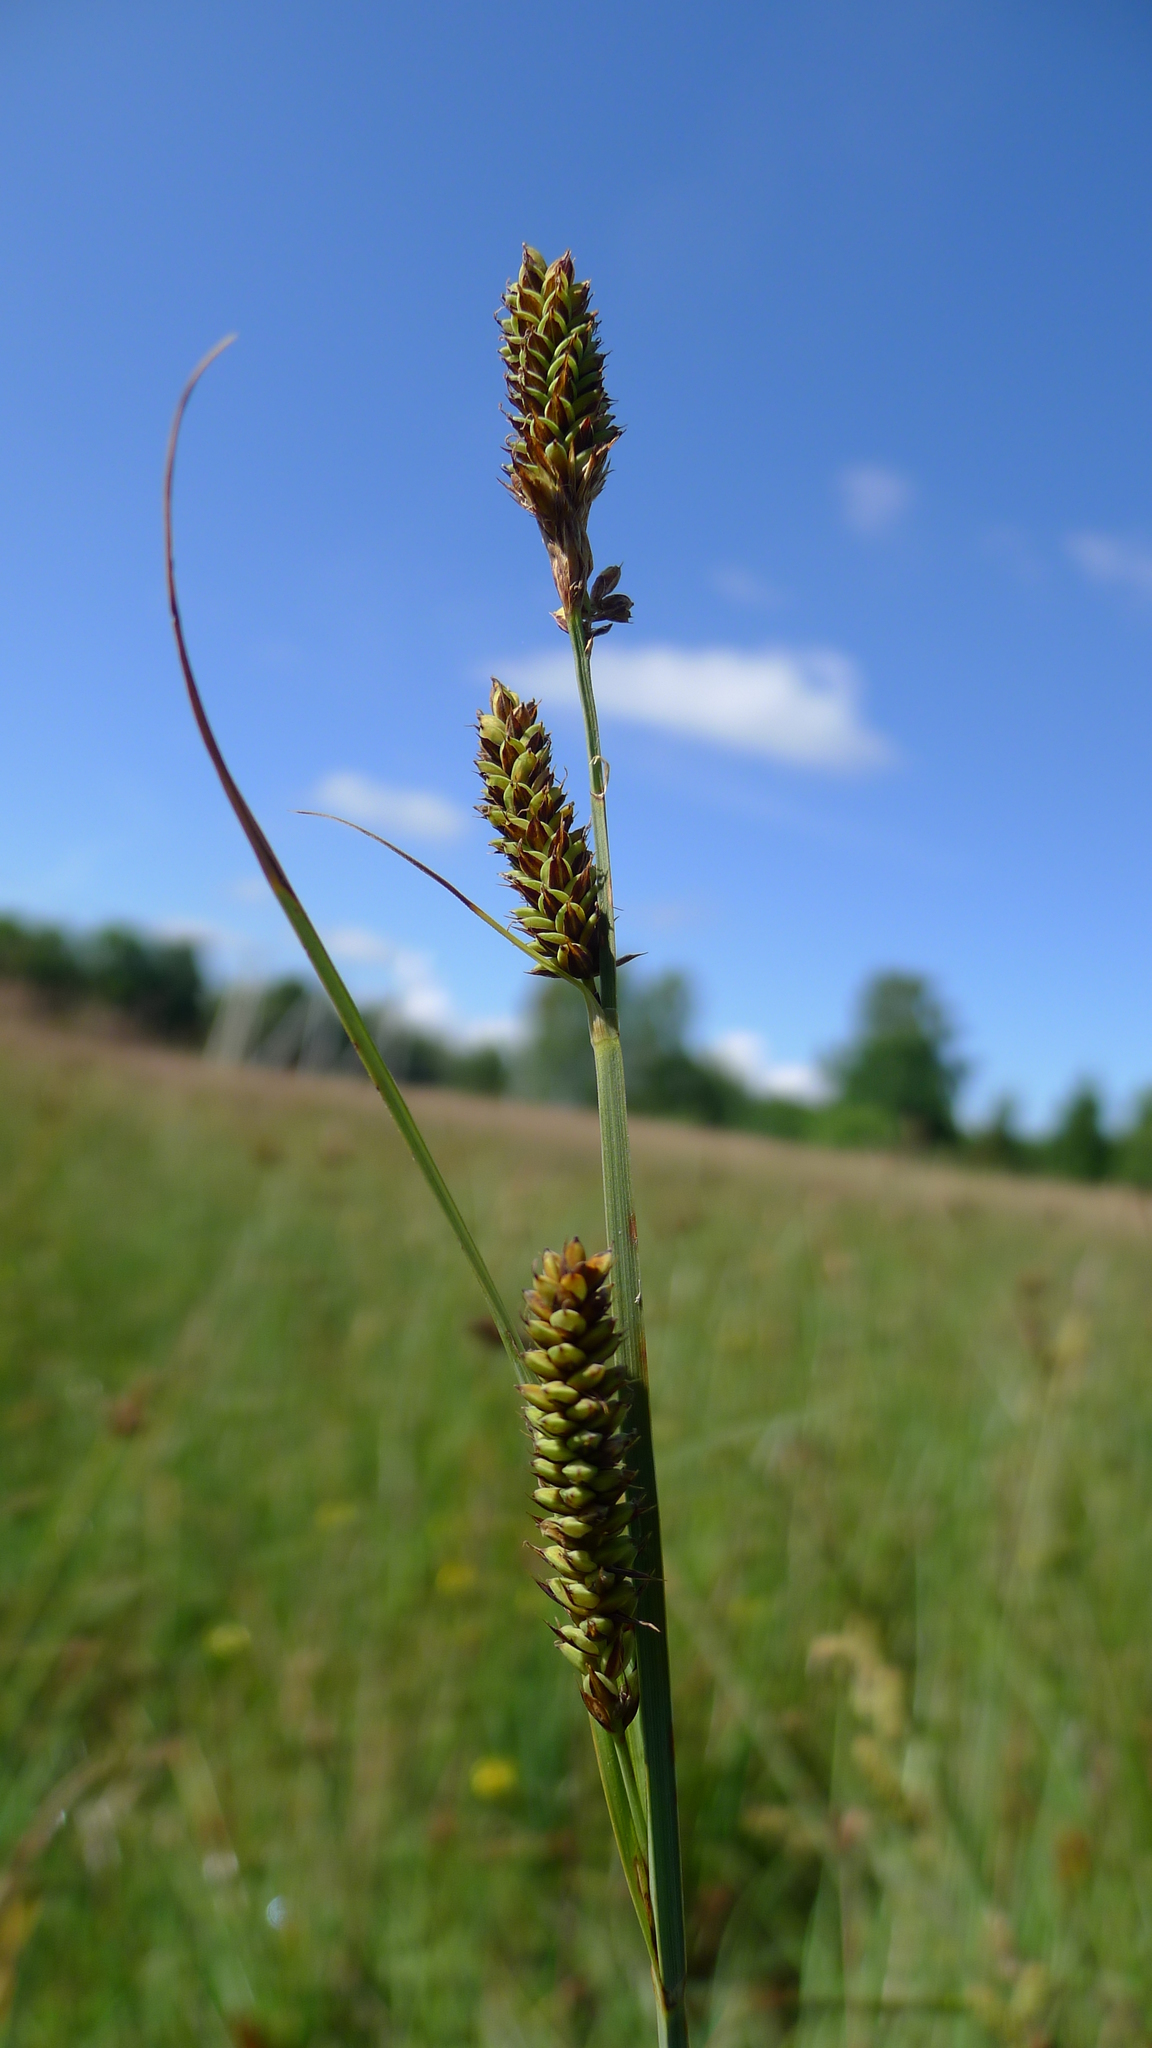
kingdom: Plantae
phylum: Tracheophyta
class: Liliopsida
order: Poales
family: Cyperaceae
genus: Carex
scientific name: Carex hartmaniorum
